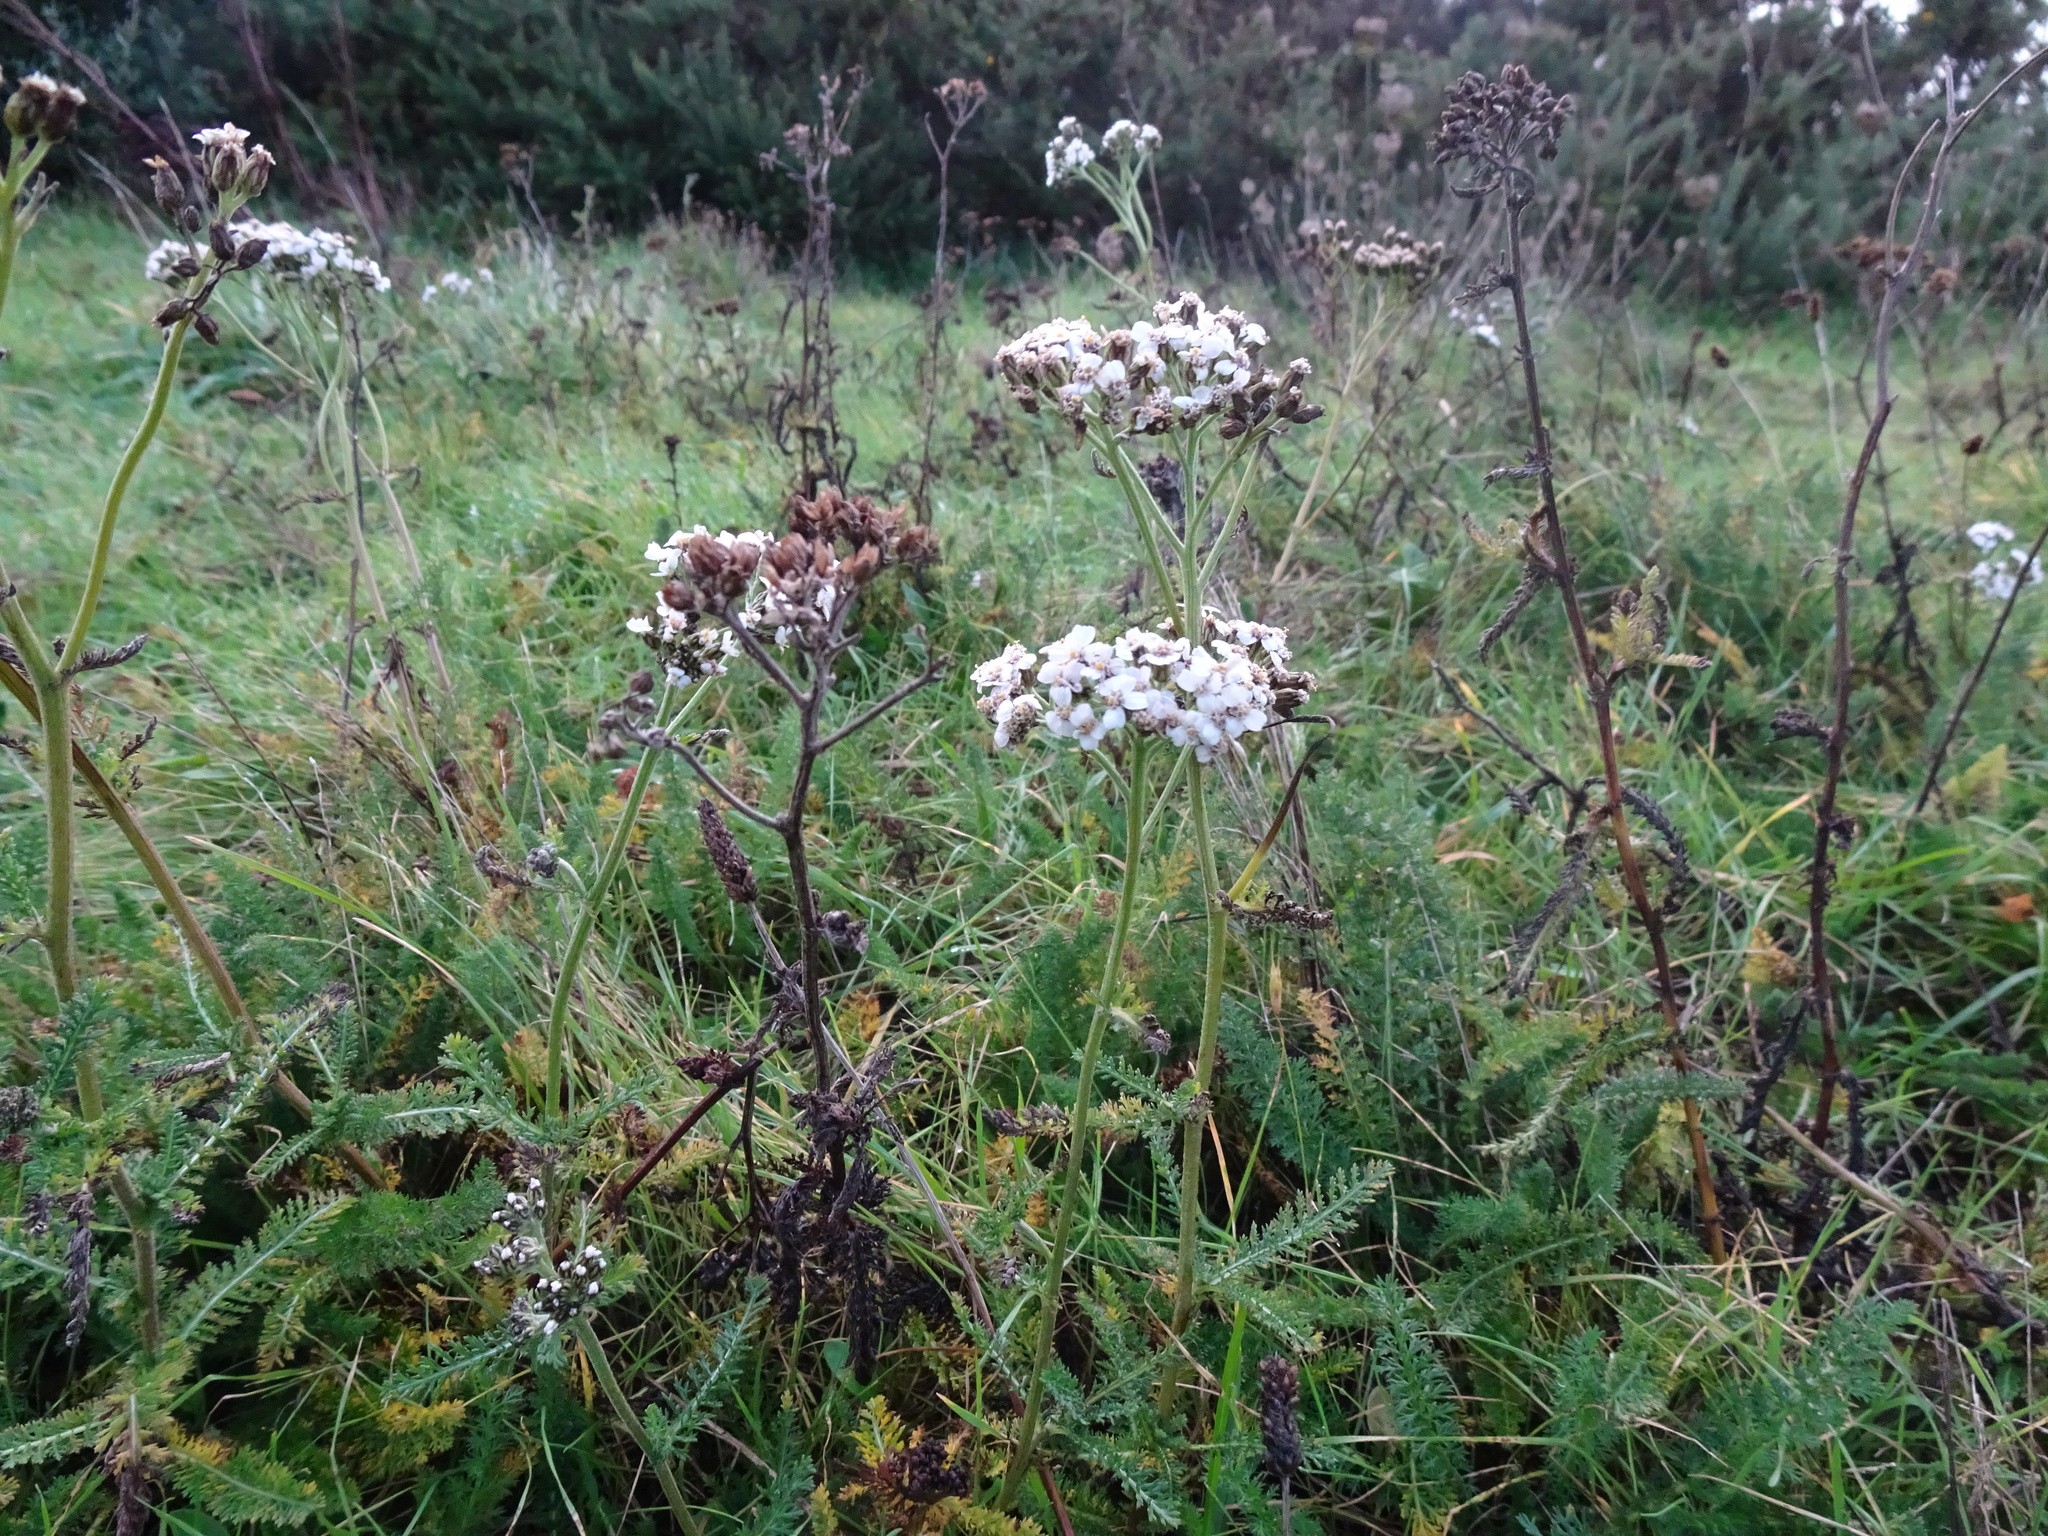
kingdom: Plantae
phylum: Tracheophyta
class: Magnoliopsida
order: Asterales
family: Asteraceae
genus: Achillea
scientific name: Achillea millefolium
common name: Yarrow
